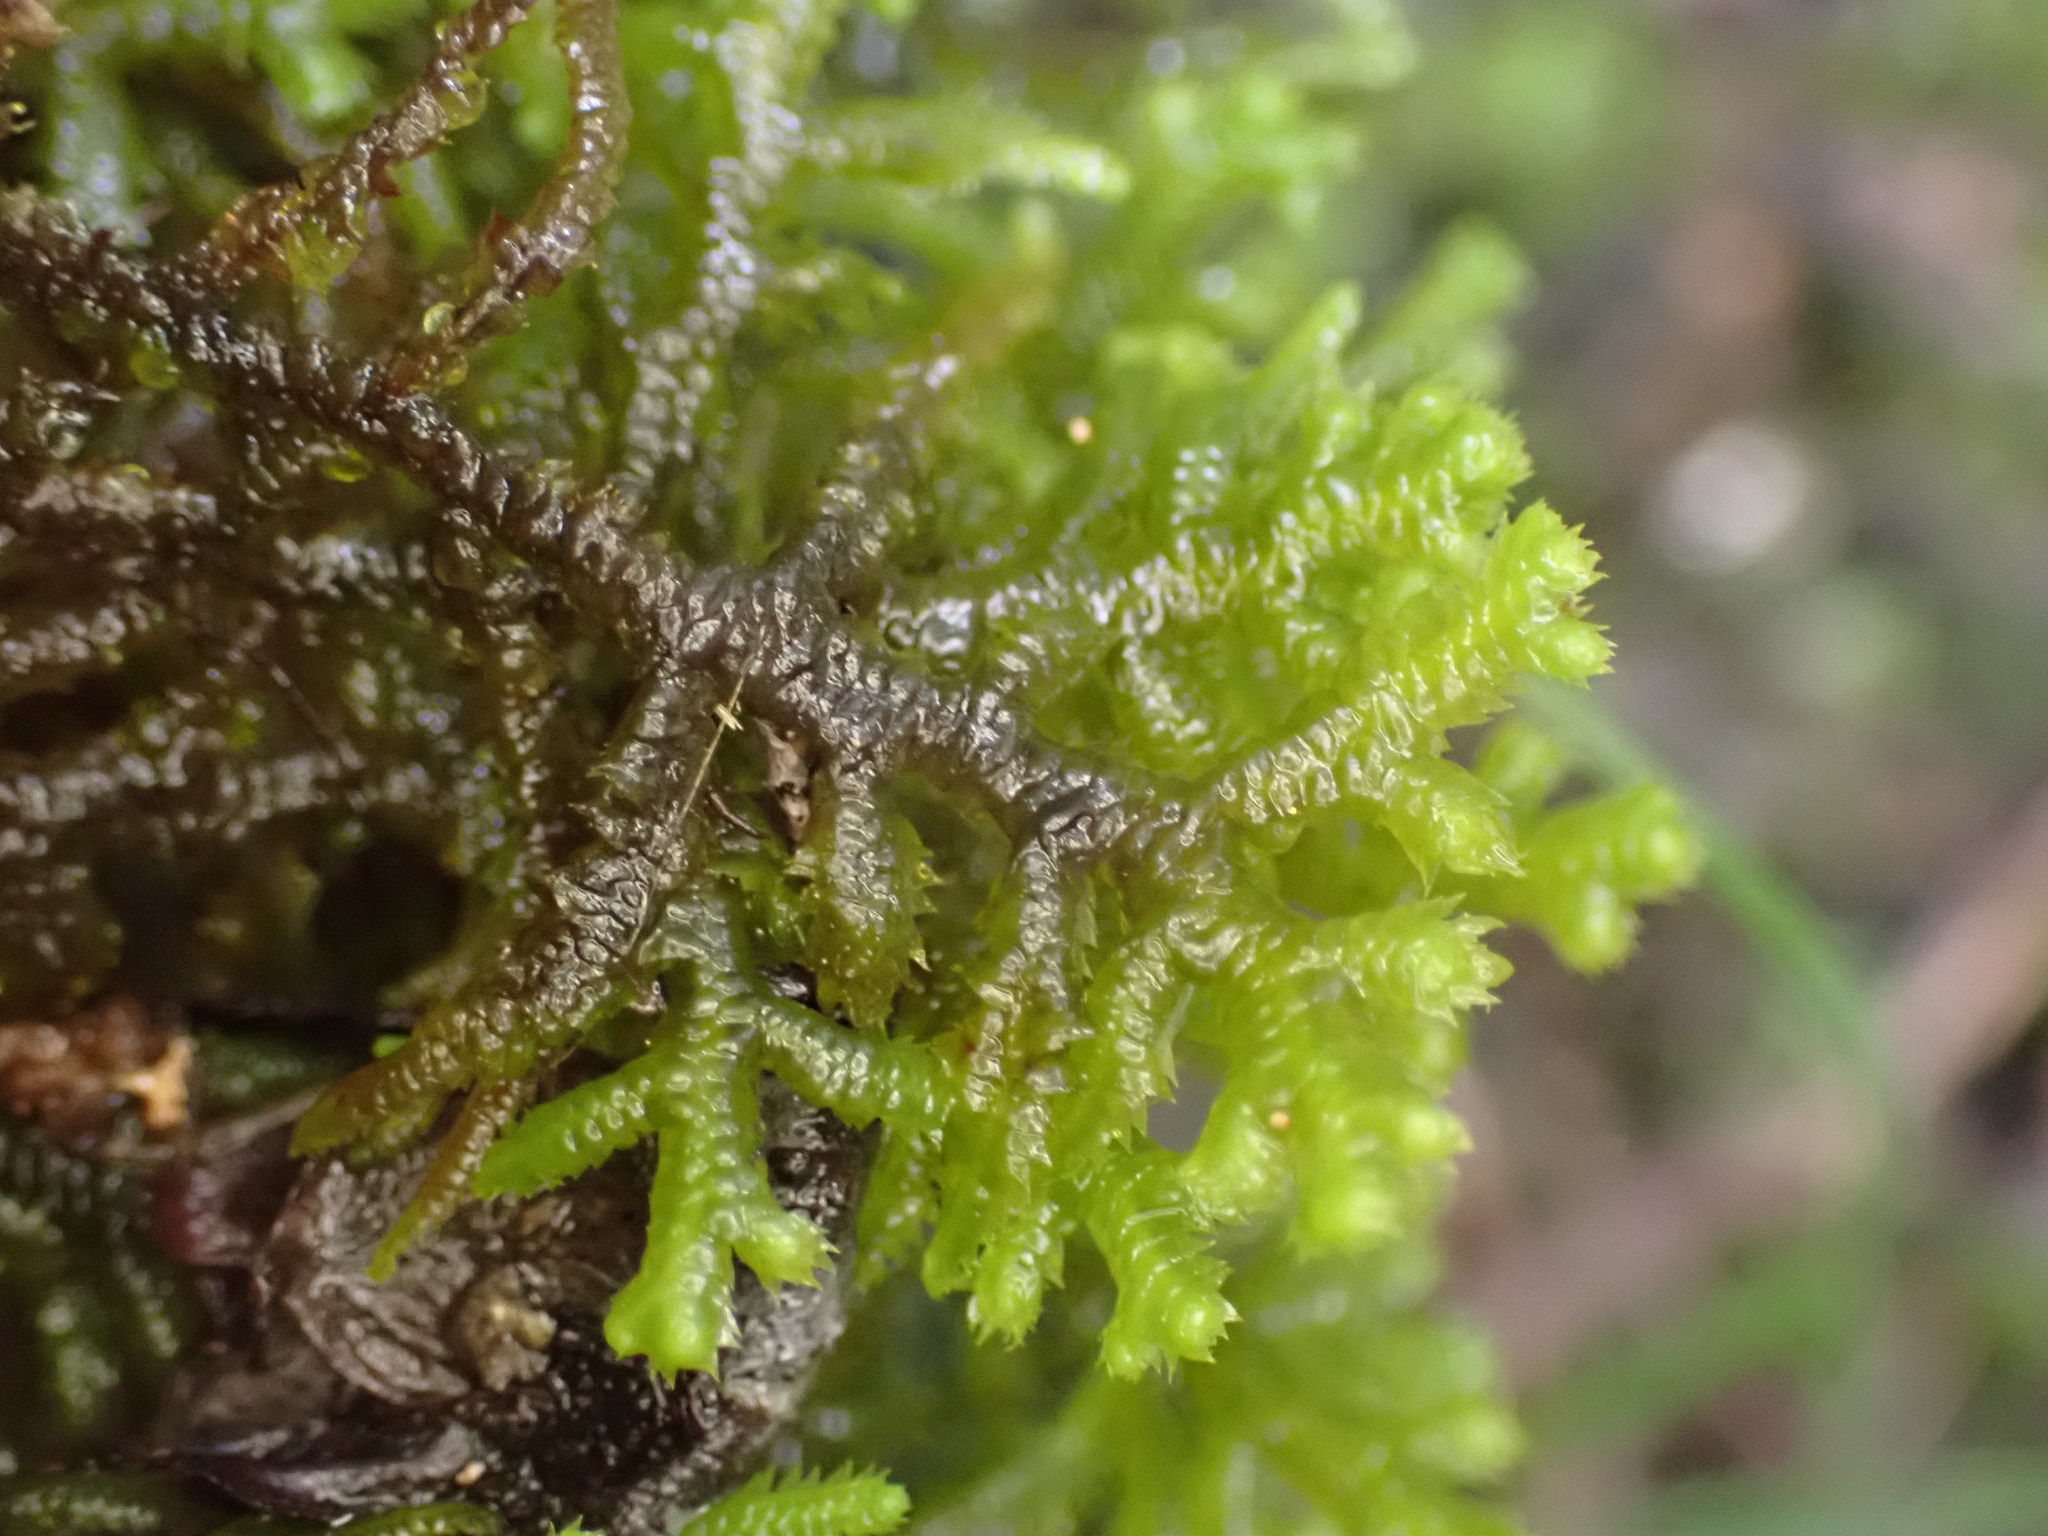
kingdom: Plantae
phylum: Marchantiophyta
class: Jungermanniopsida
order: Jungermanniales
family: Mastigophoraceae
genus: Dendromastigophora
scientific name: Dendromastigophora flagellifera
